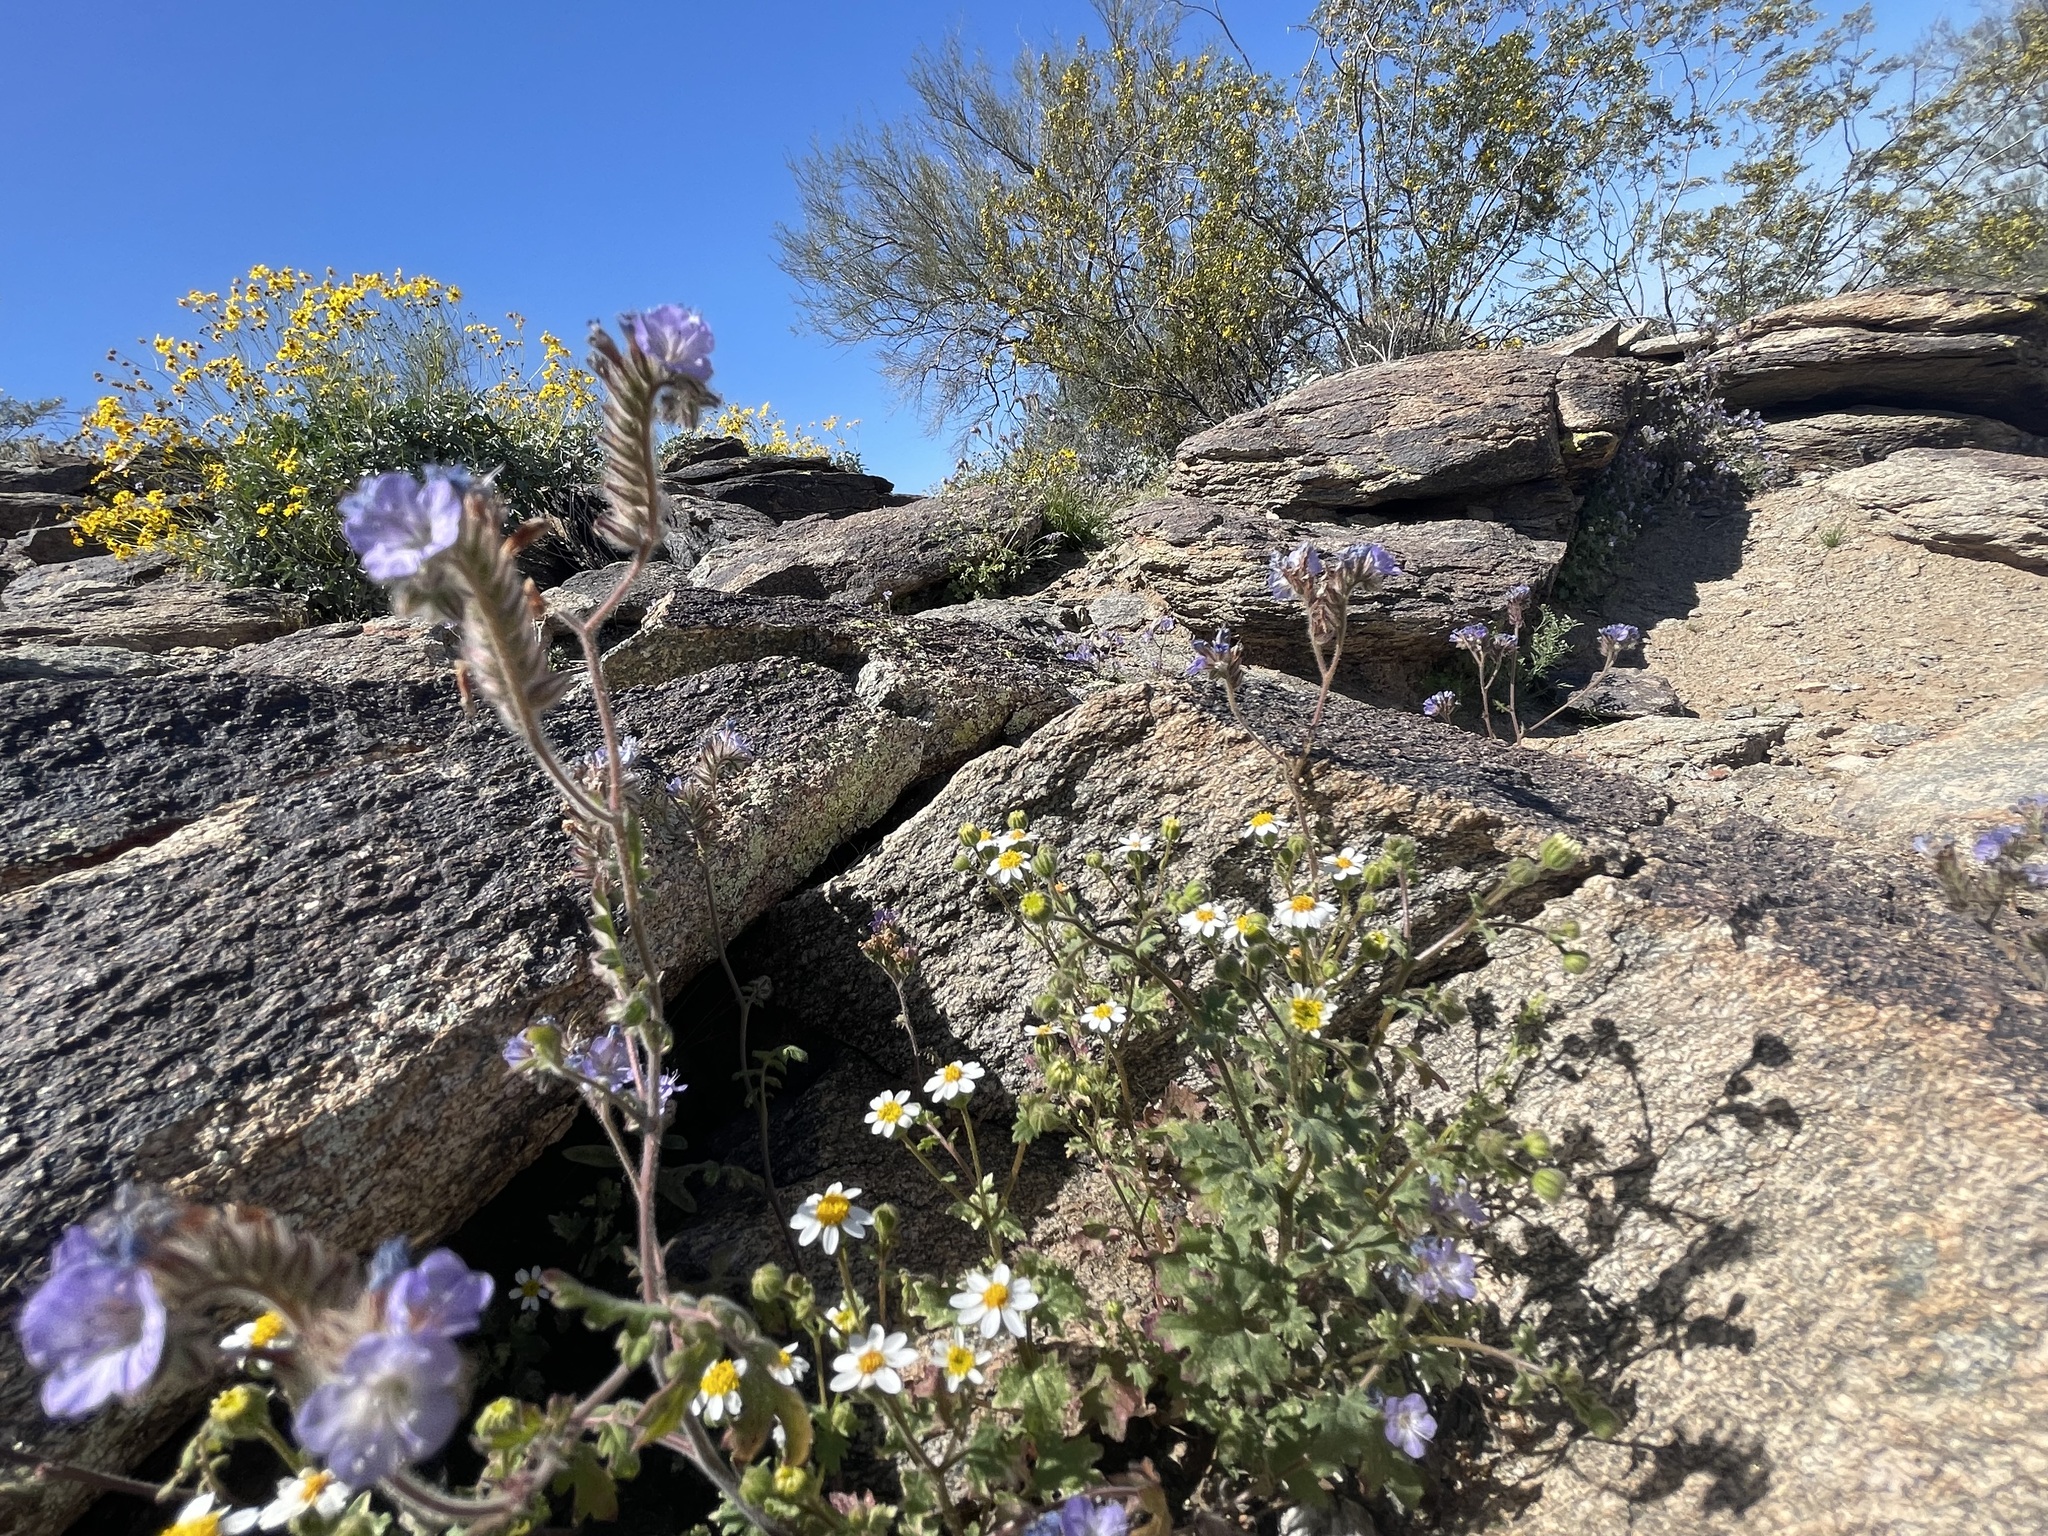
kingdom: Plantae
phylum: Tracheophyta
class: Magnoliopsida
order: Asterales
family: Asteraceae
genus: Laphamia
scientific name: Laphamia emoryi
